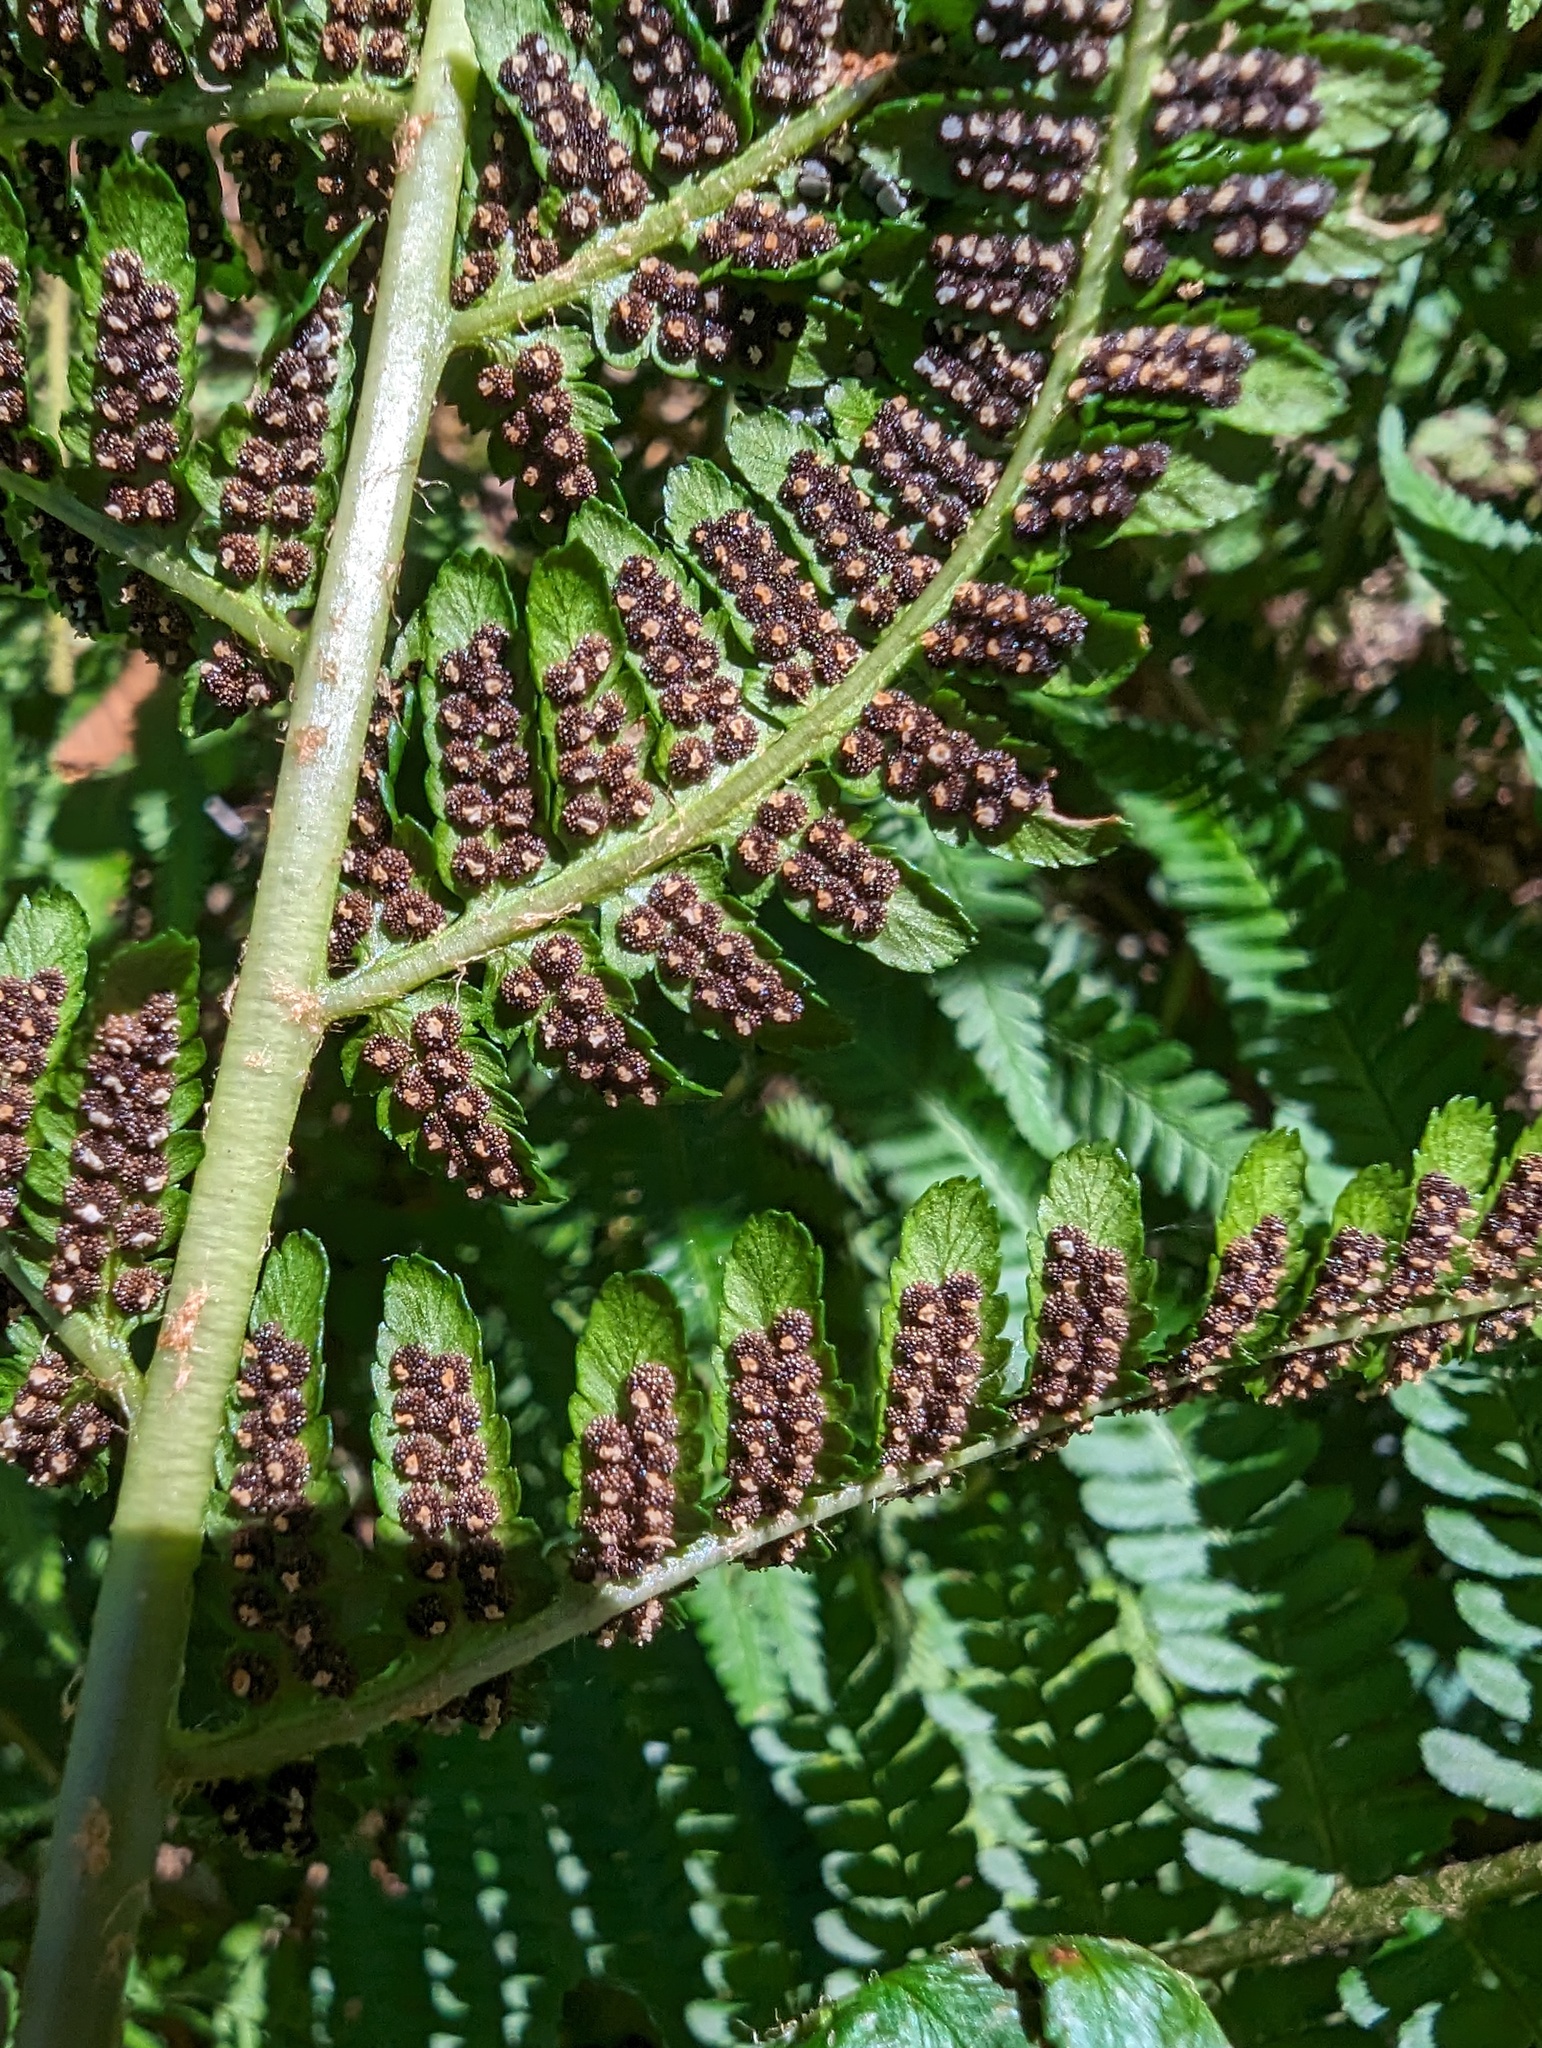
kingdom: Plantae
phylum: Tracheophyta
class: Polypodiopsida
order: Polypodiales
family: Dryopteridaceae
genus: Dryopteris
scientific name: Dryopteris filix-mas
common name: Male fern
